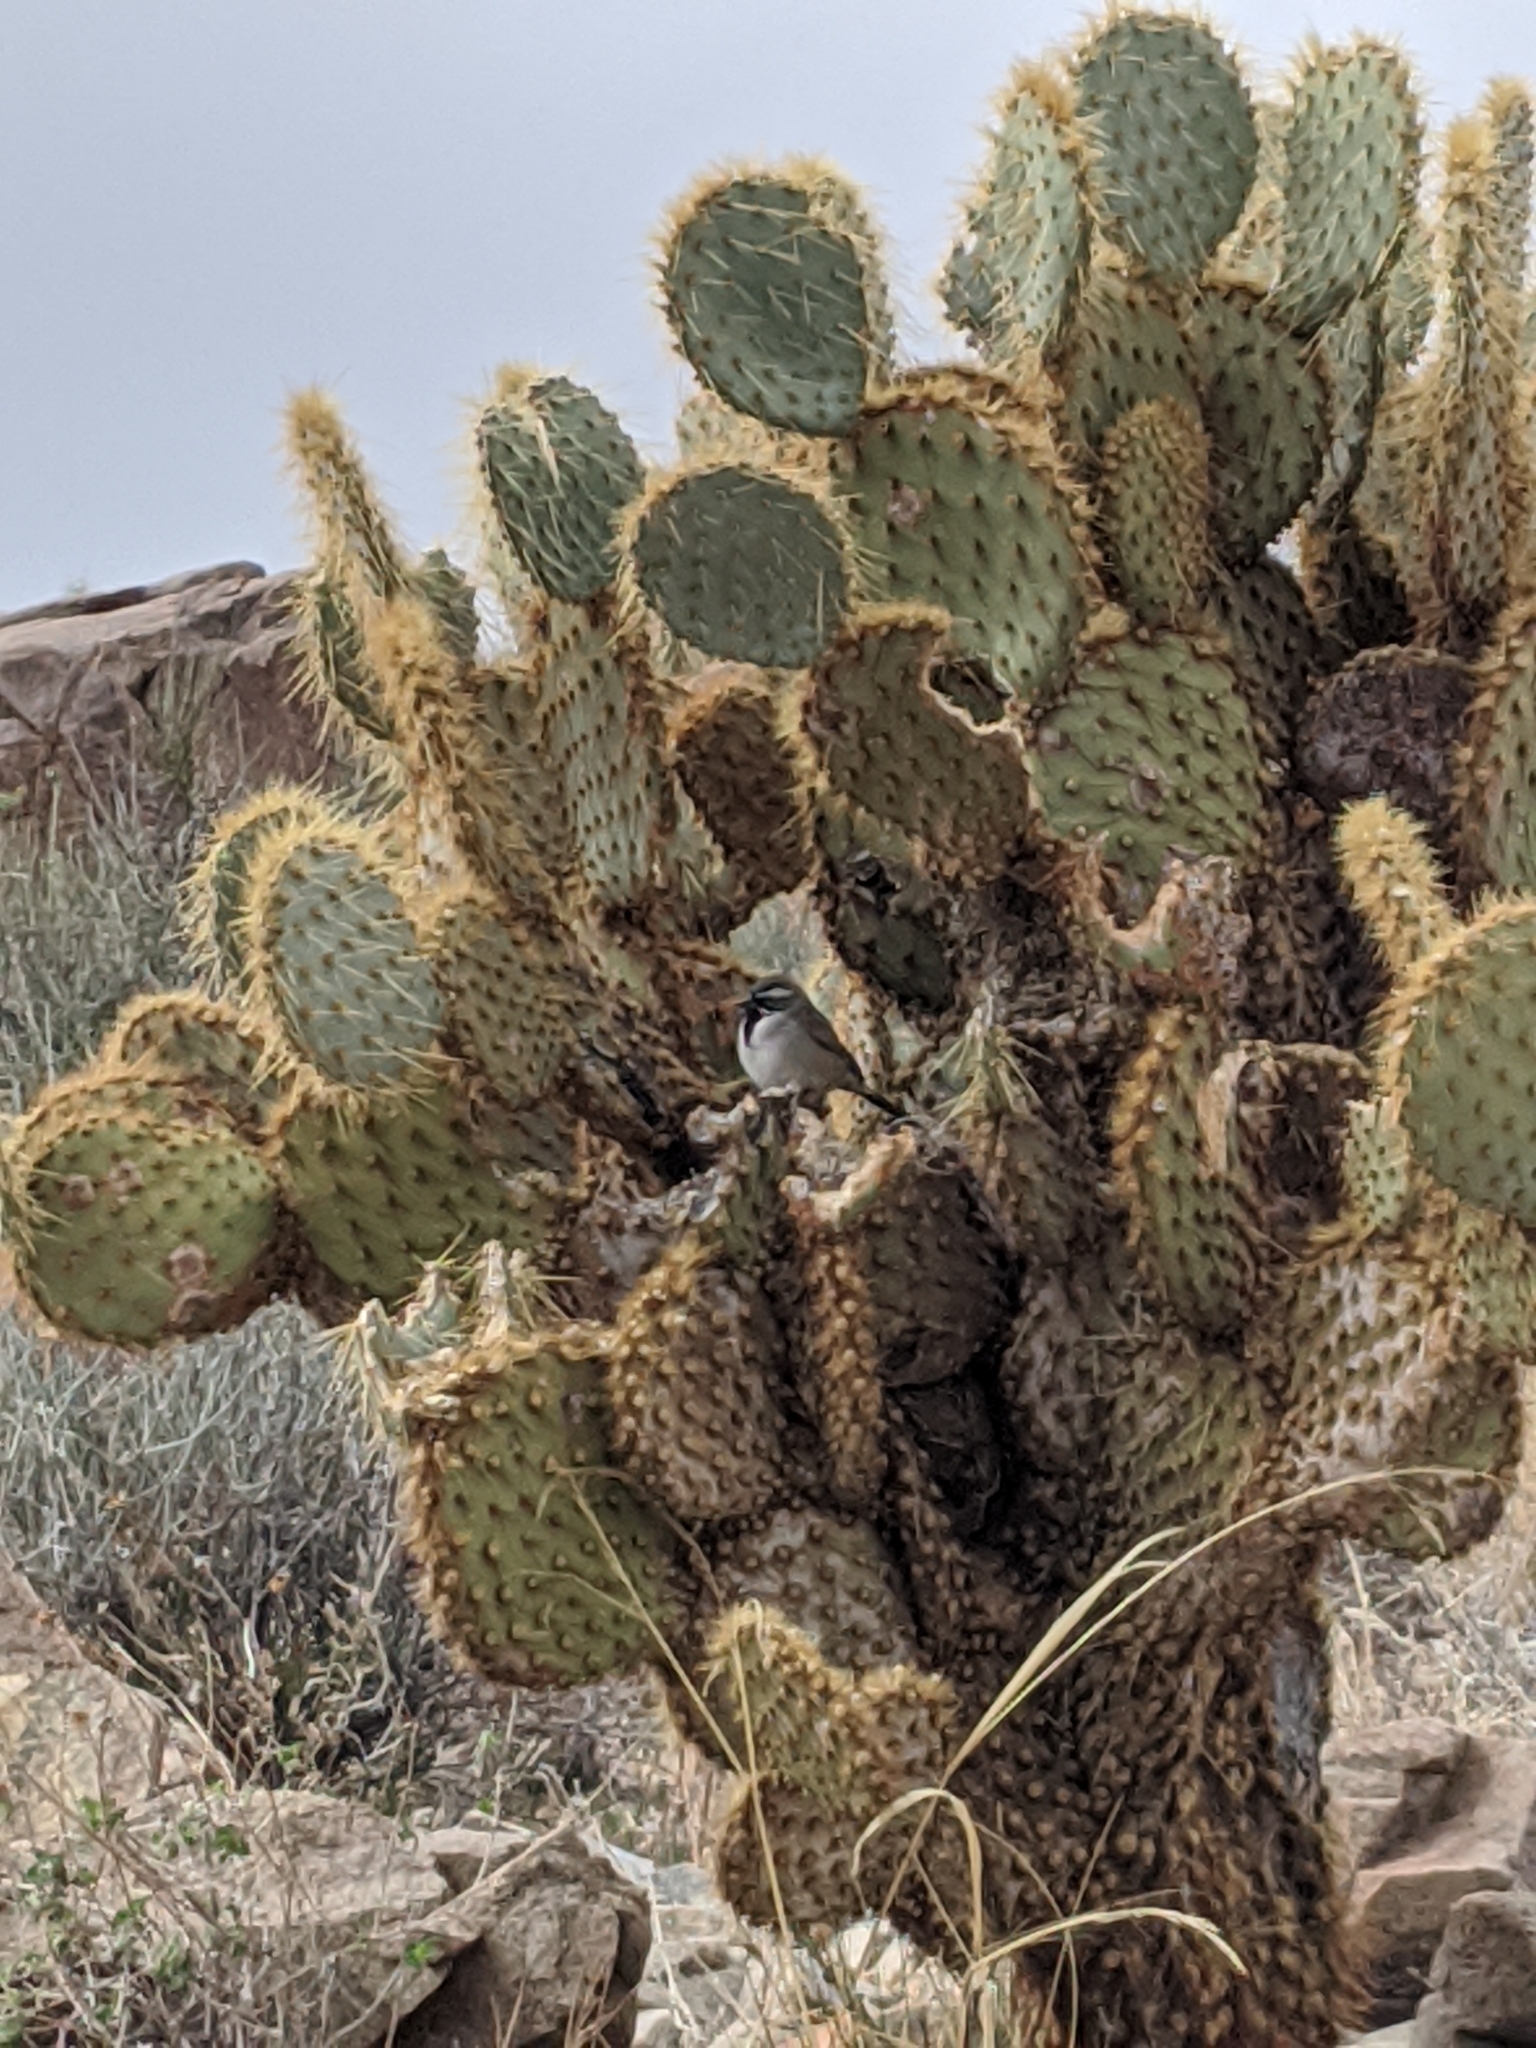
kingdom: Plantae
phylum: Tracheophyta
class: Magnoliopsida
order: Caryophyllales
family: Cactaceae
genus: Opuntia
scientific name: Opuntia chlorotica
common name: Dollar-joint prickly-pear
